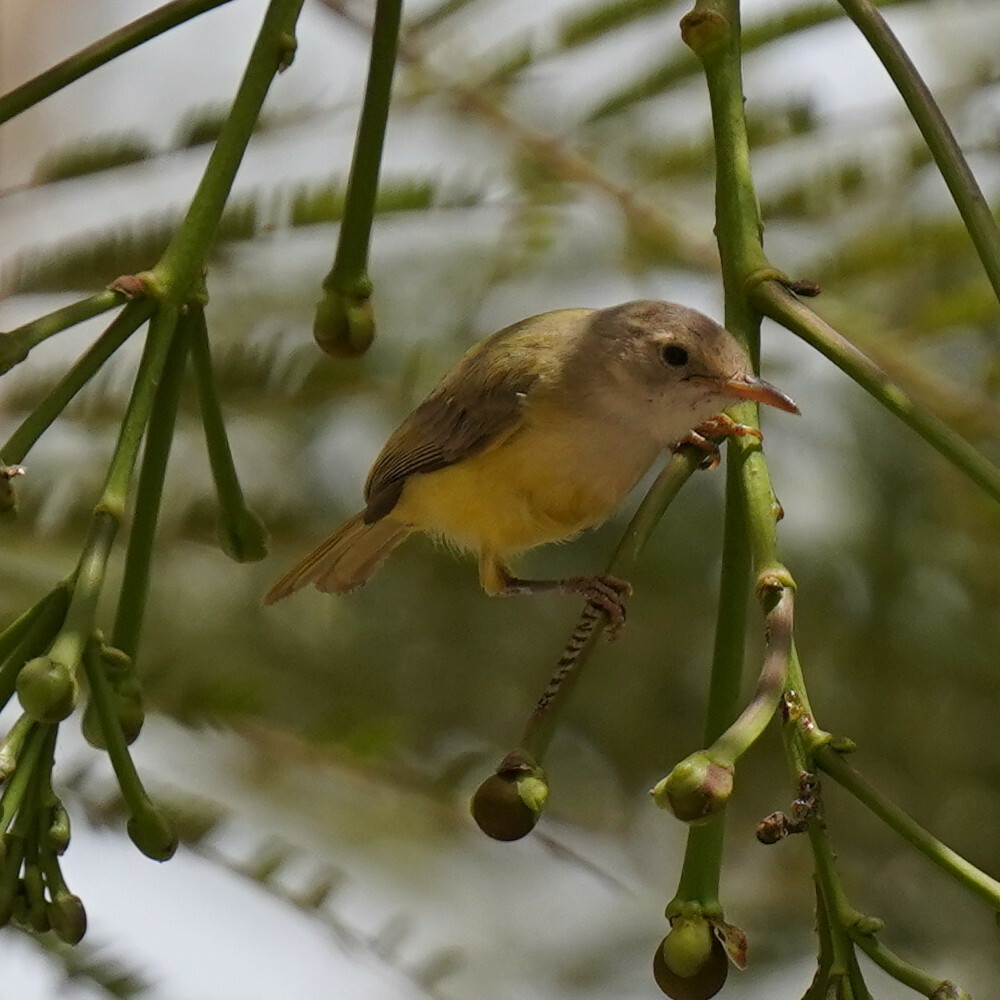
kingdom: Animalia
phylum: Chordata
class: Aves
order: Passeriformes
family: Cisticolidae
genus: Eremomela
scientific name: Eremomela pusilla
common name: Senegal eremomela
